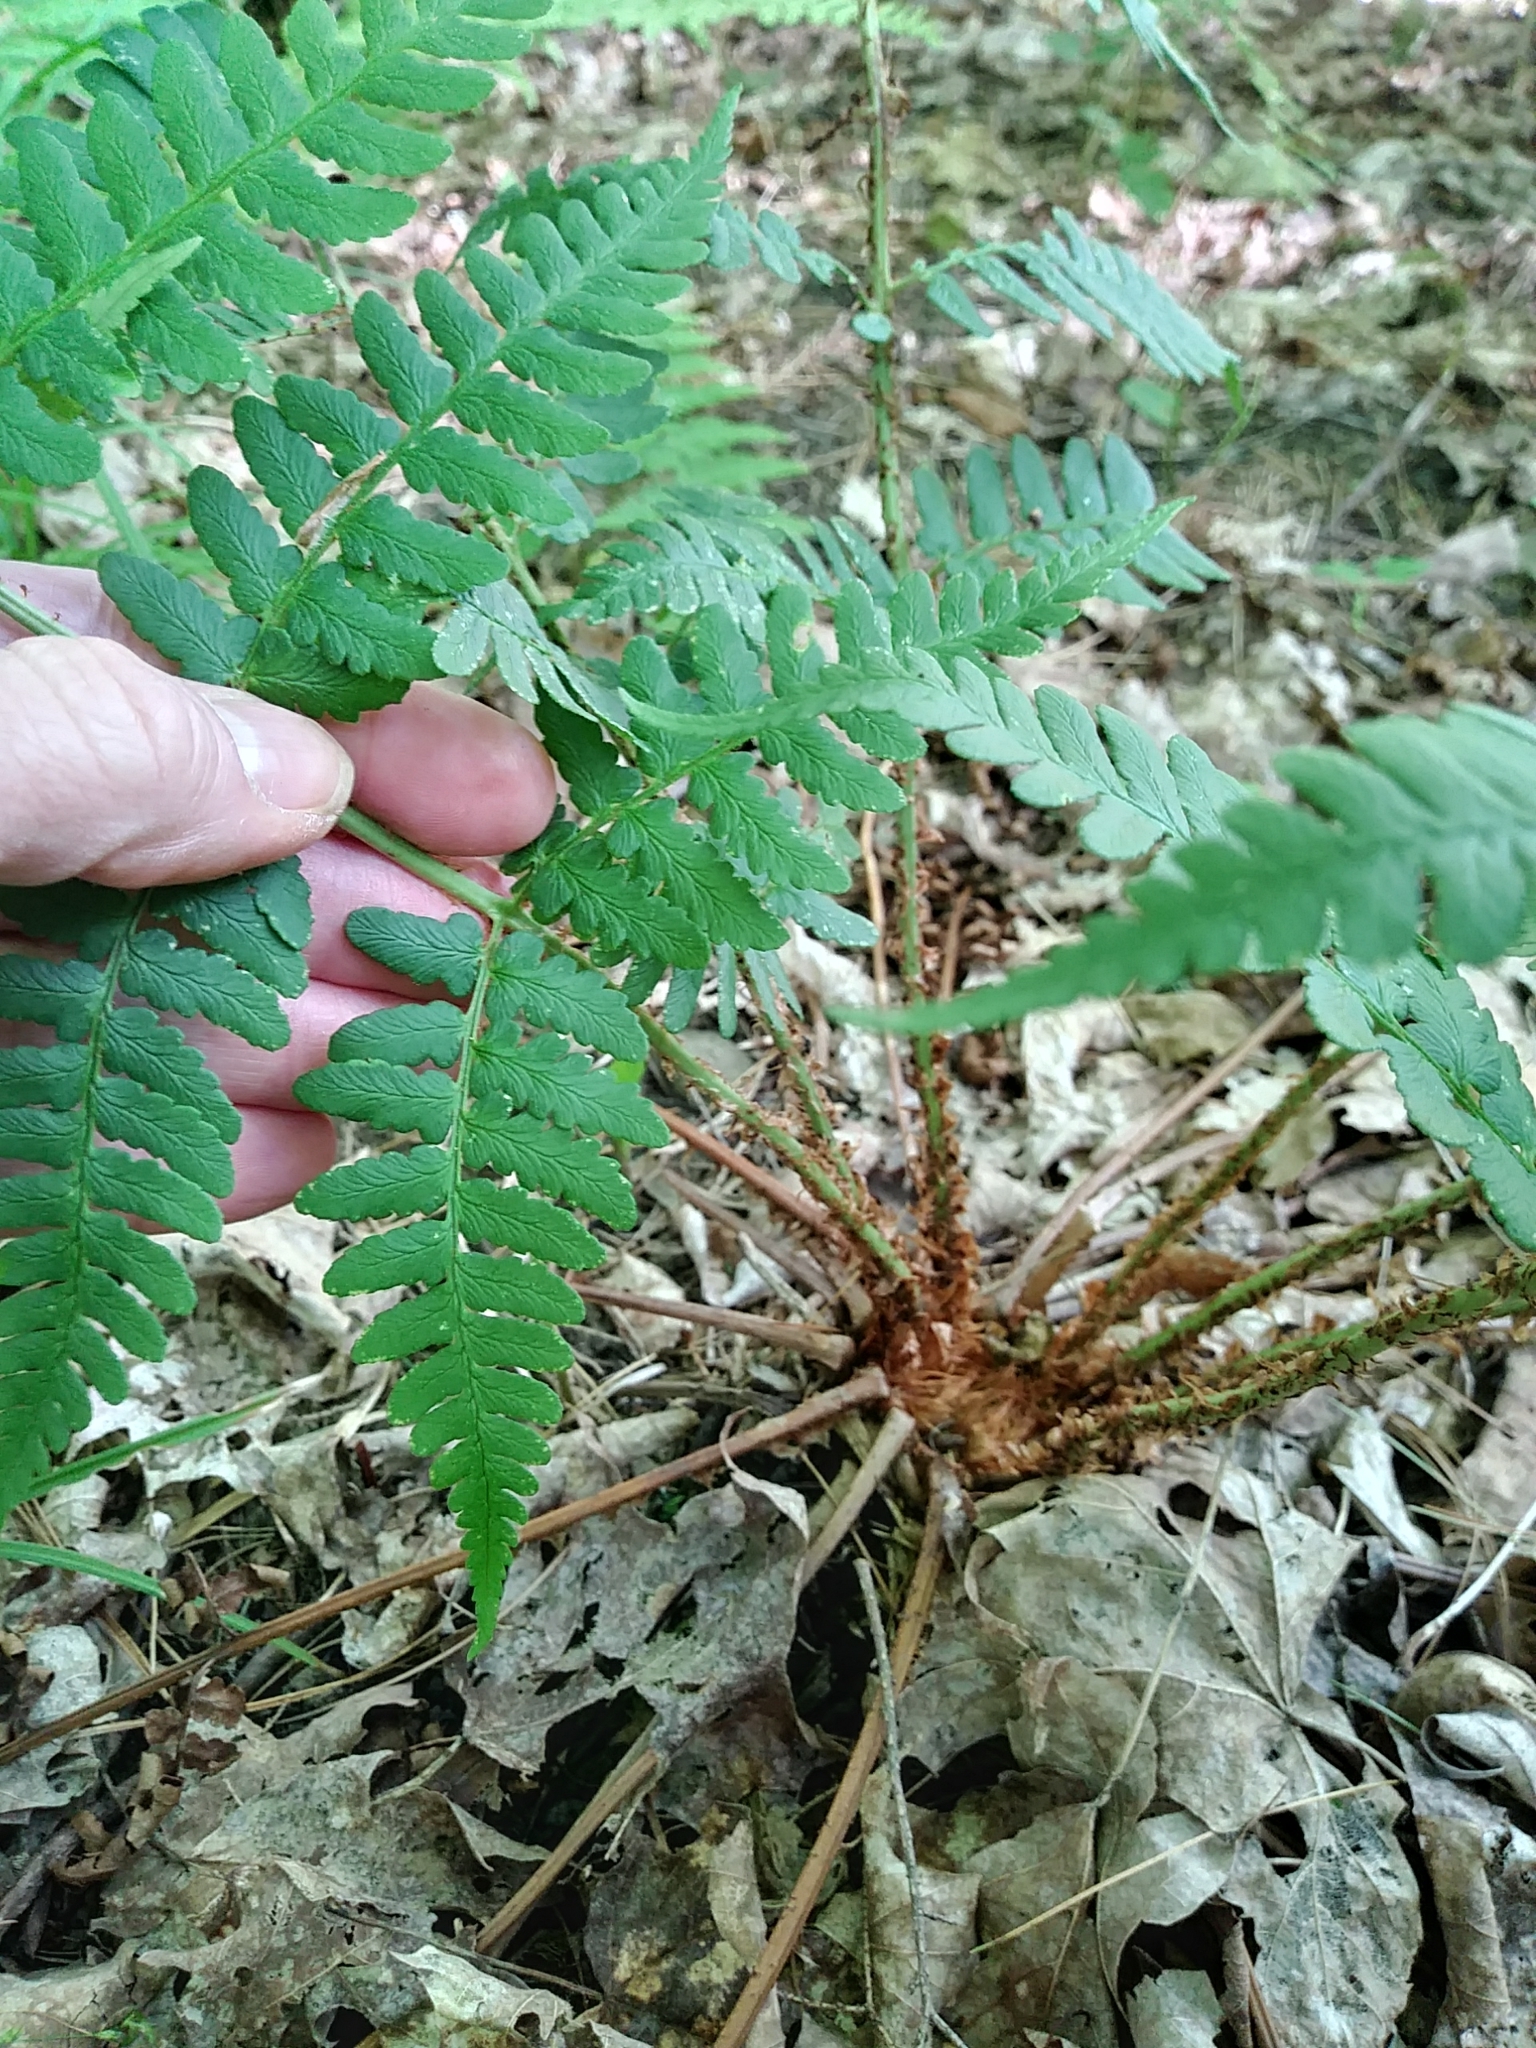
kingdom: Plantae
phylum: Tracheophyta
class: Polypodiopsida
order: Polypodiales
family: Dryopteridaceae
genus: Dryopteris
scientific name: Dryopteris marginalis
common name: Marginal wood fern
